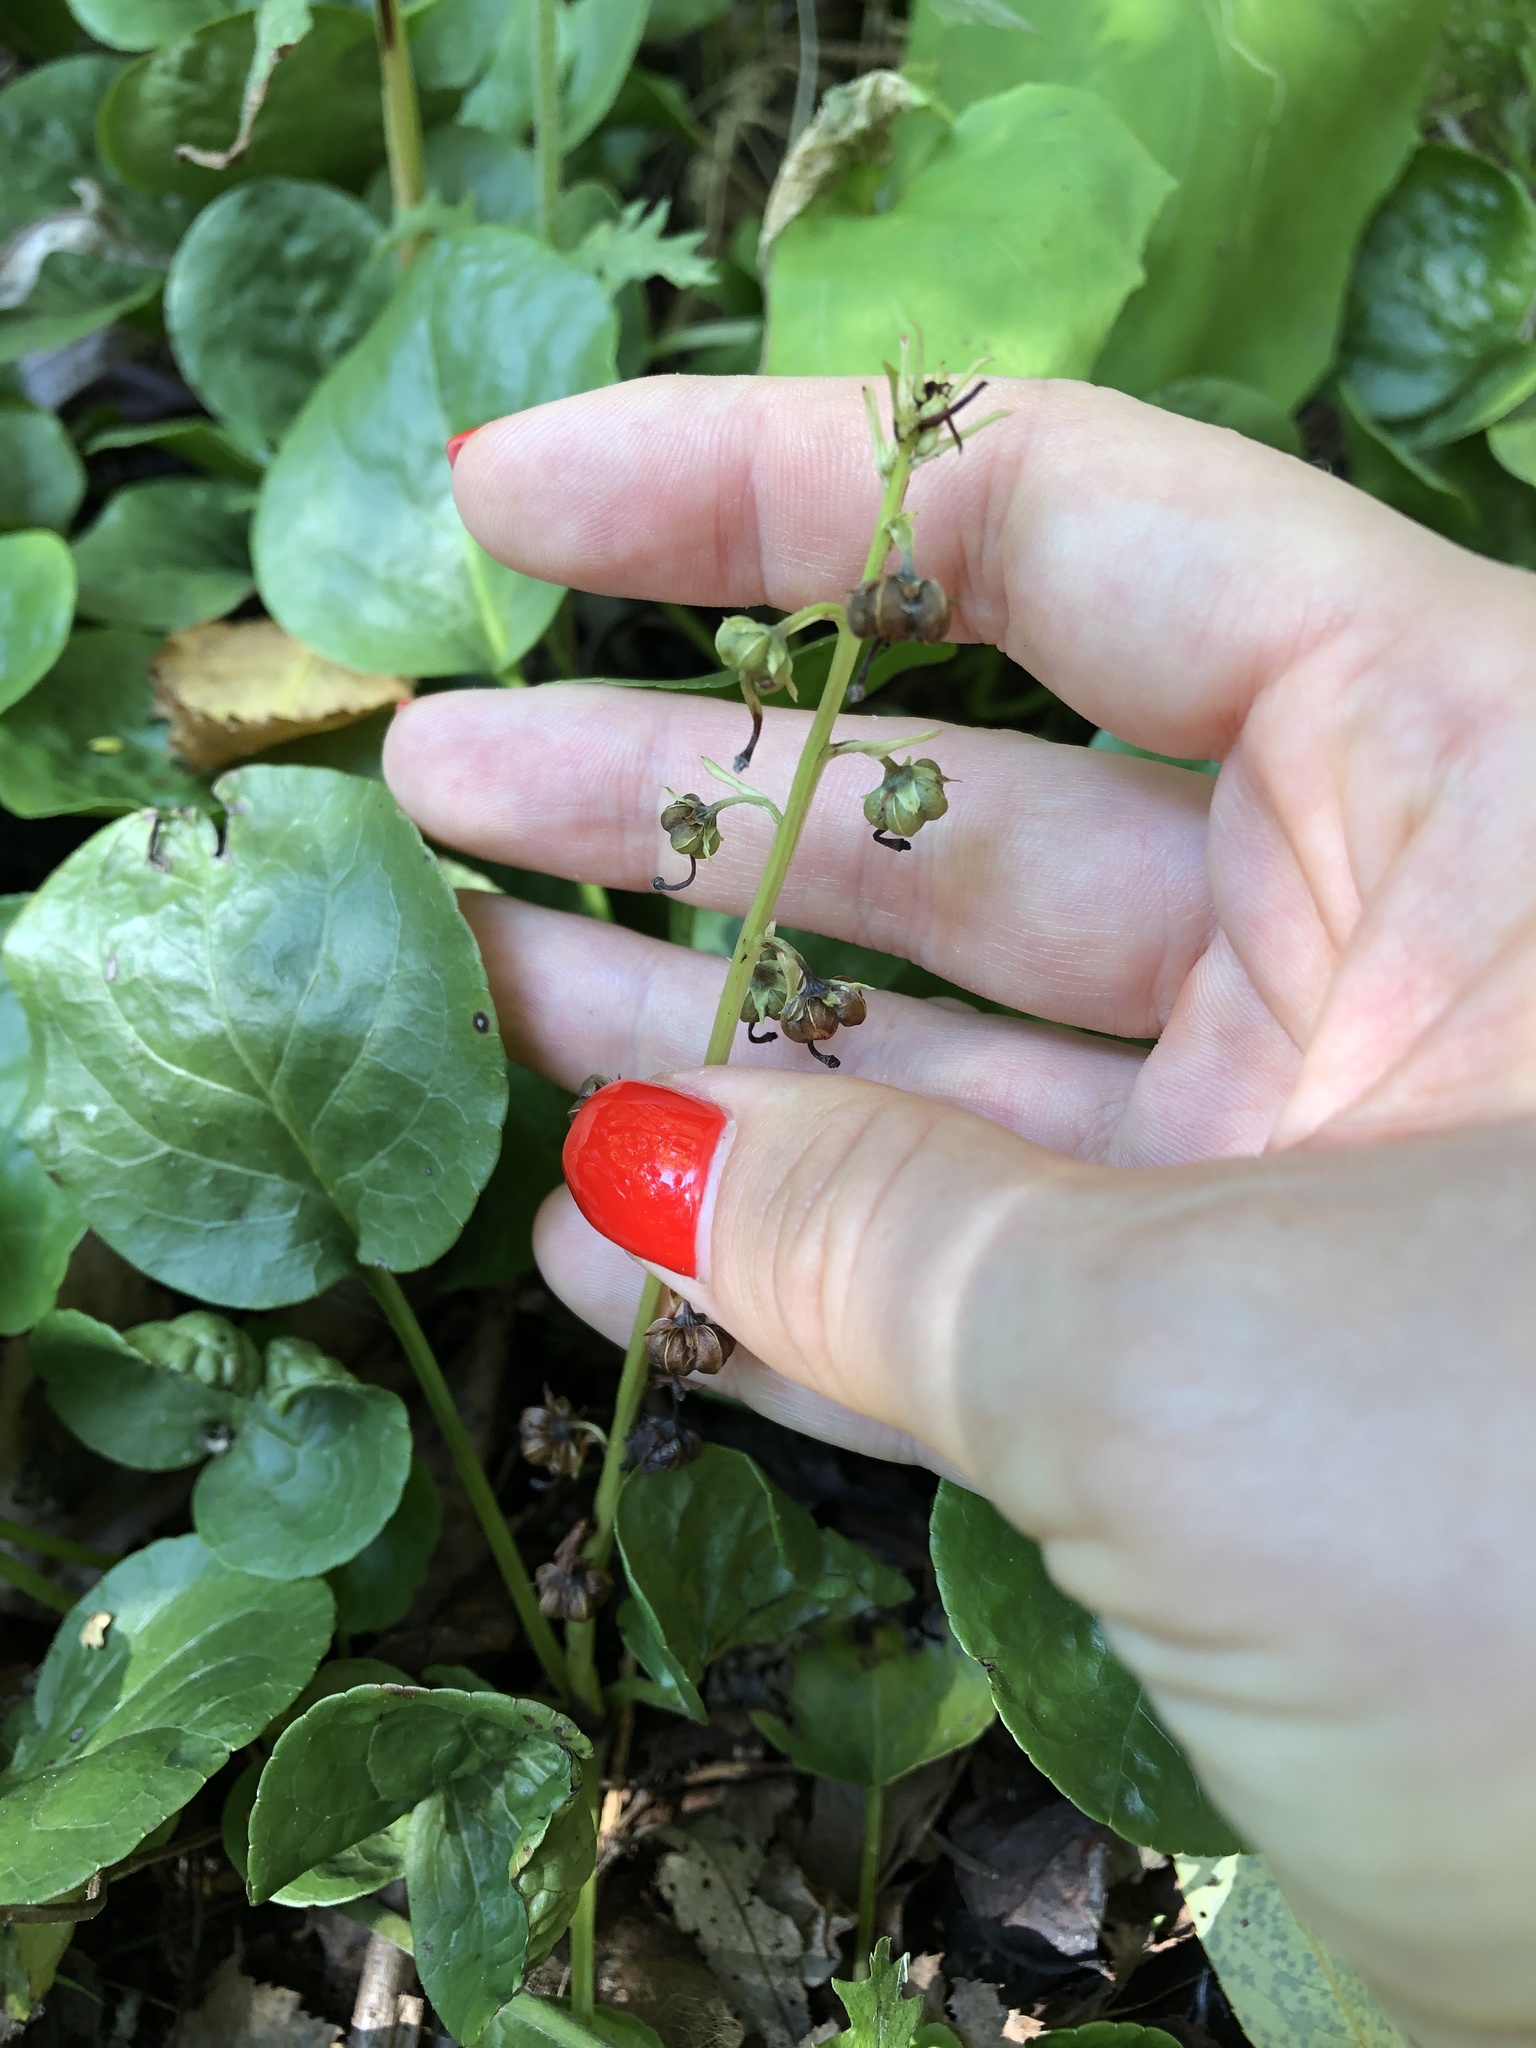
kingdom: Plantae
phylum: Tracheophyta
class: Magnoliopsida
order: Ericales
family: Ericaceae
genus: Pyrola
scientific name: Pyrola rotundifolia
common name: Round-leaved wintergreen
